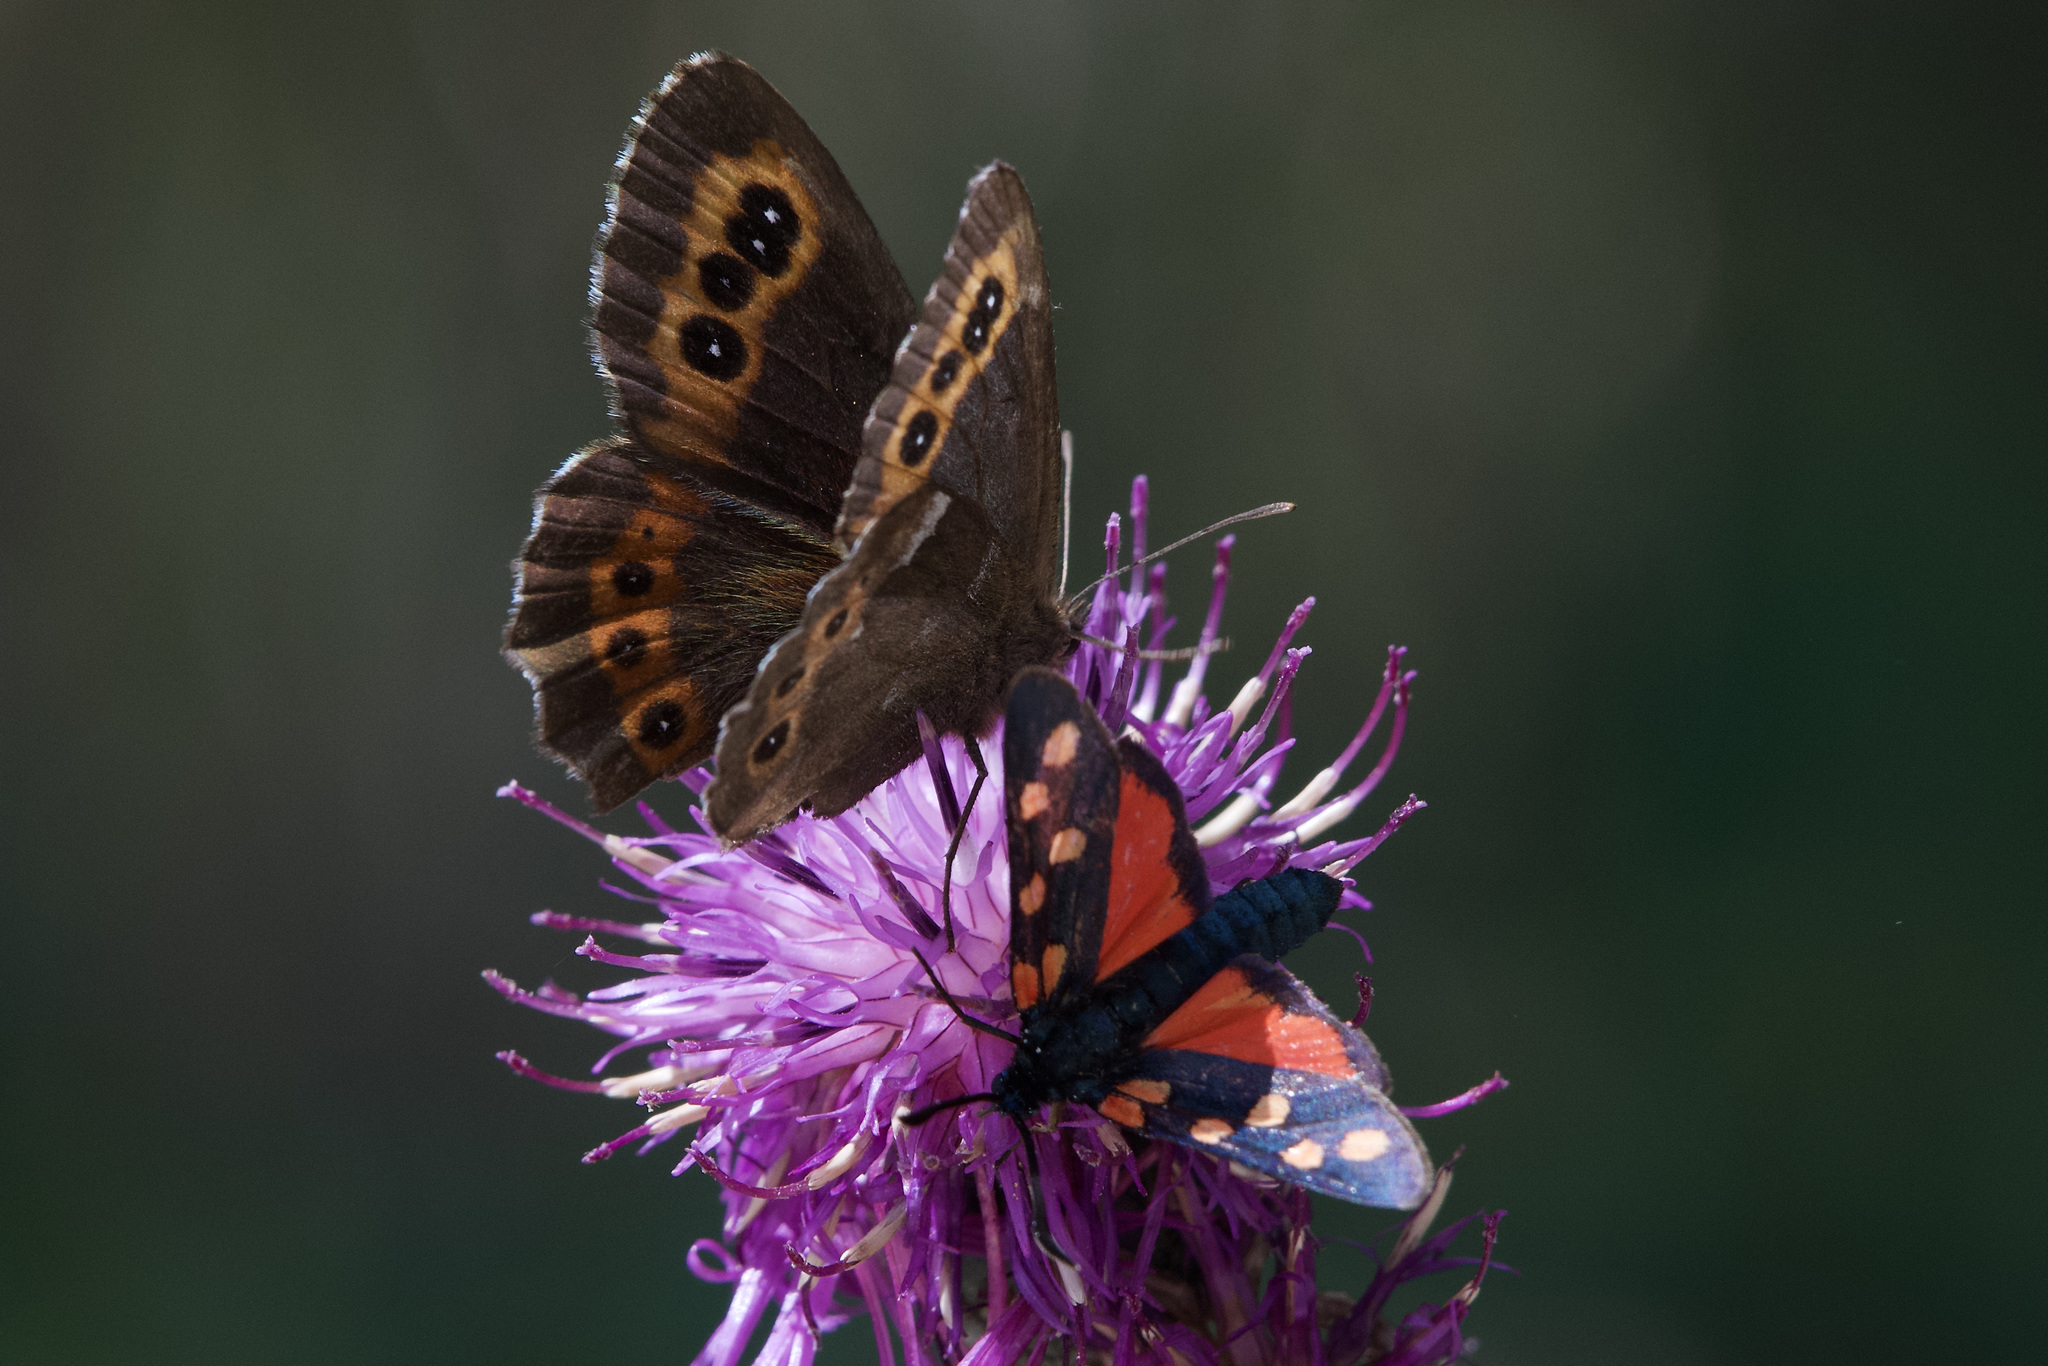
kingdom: Animalia
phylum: Arthropoda
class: Insecta
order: Lepidoptera
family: Zygaenidae
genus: Zygaena
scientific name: Zygaena transalpina
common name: Southern six spot burnet
